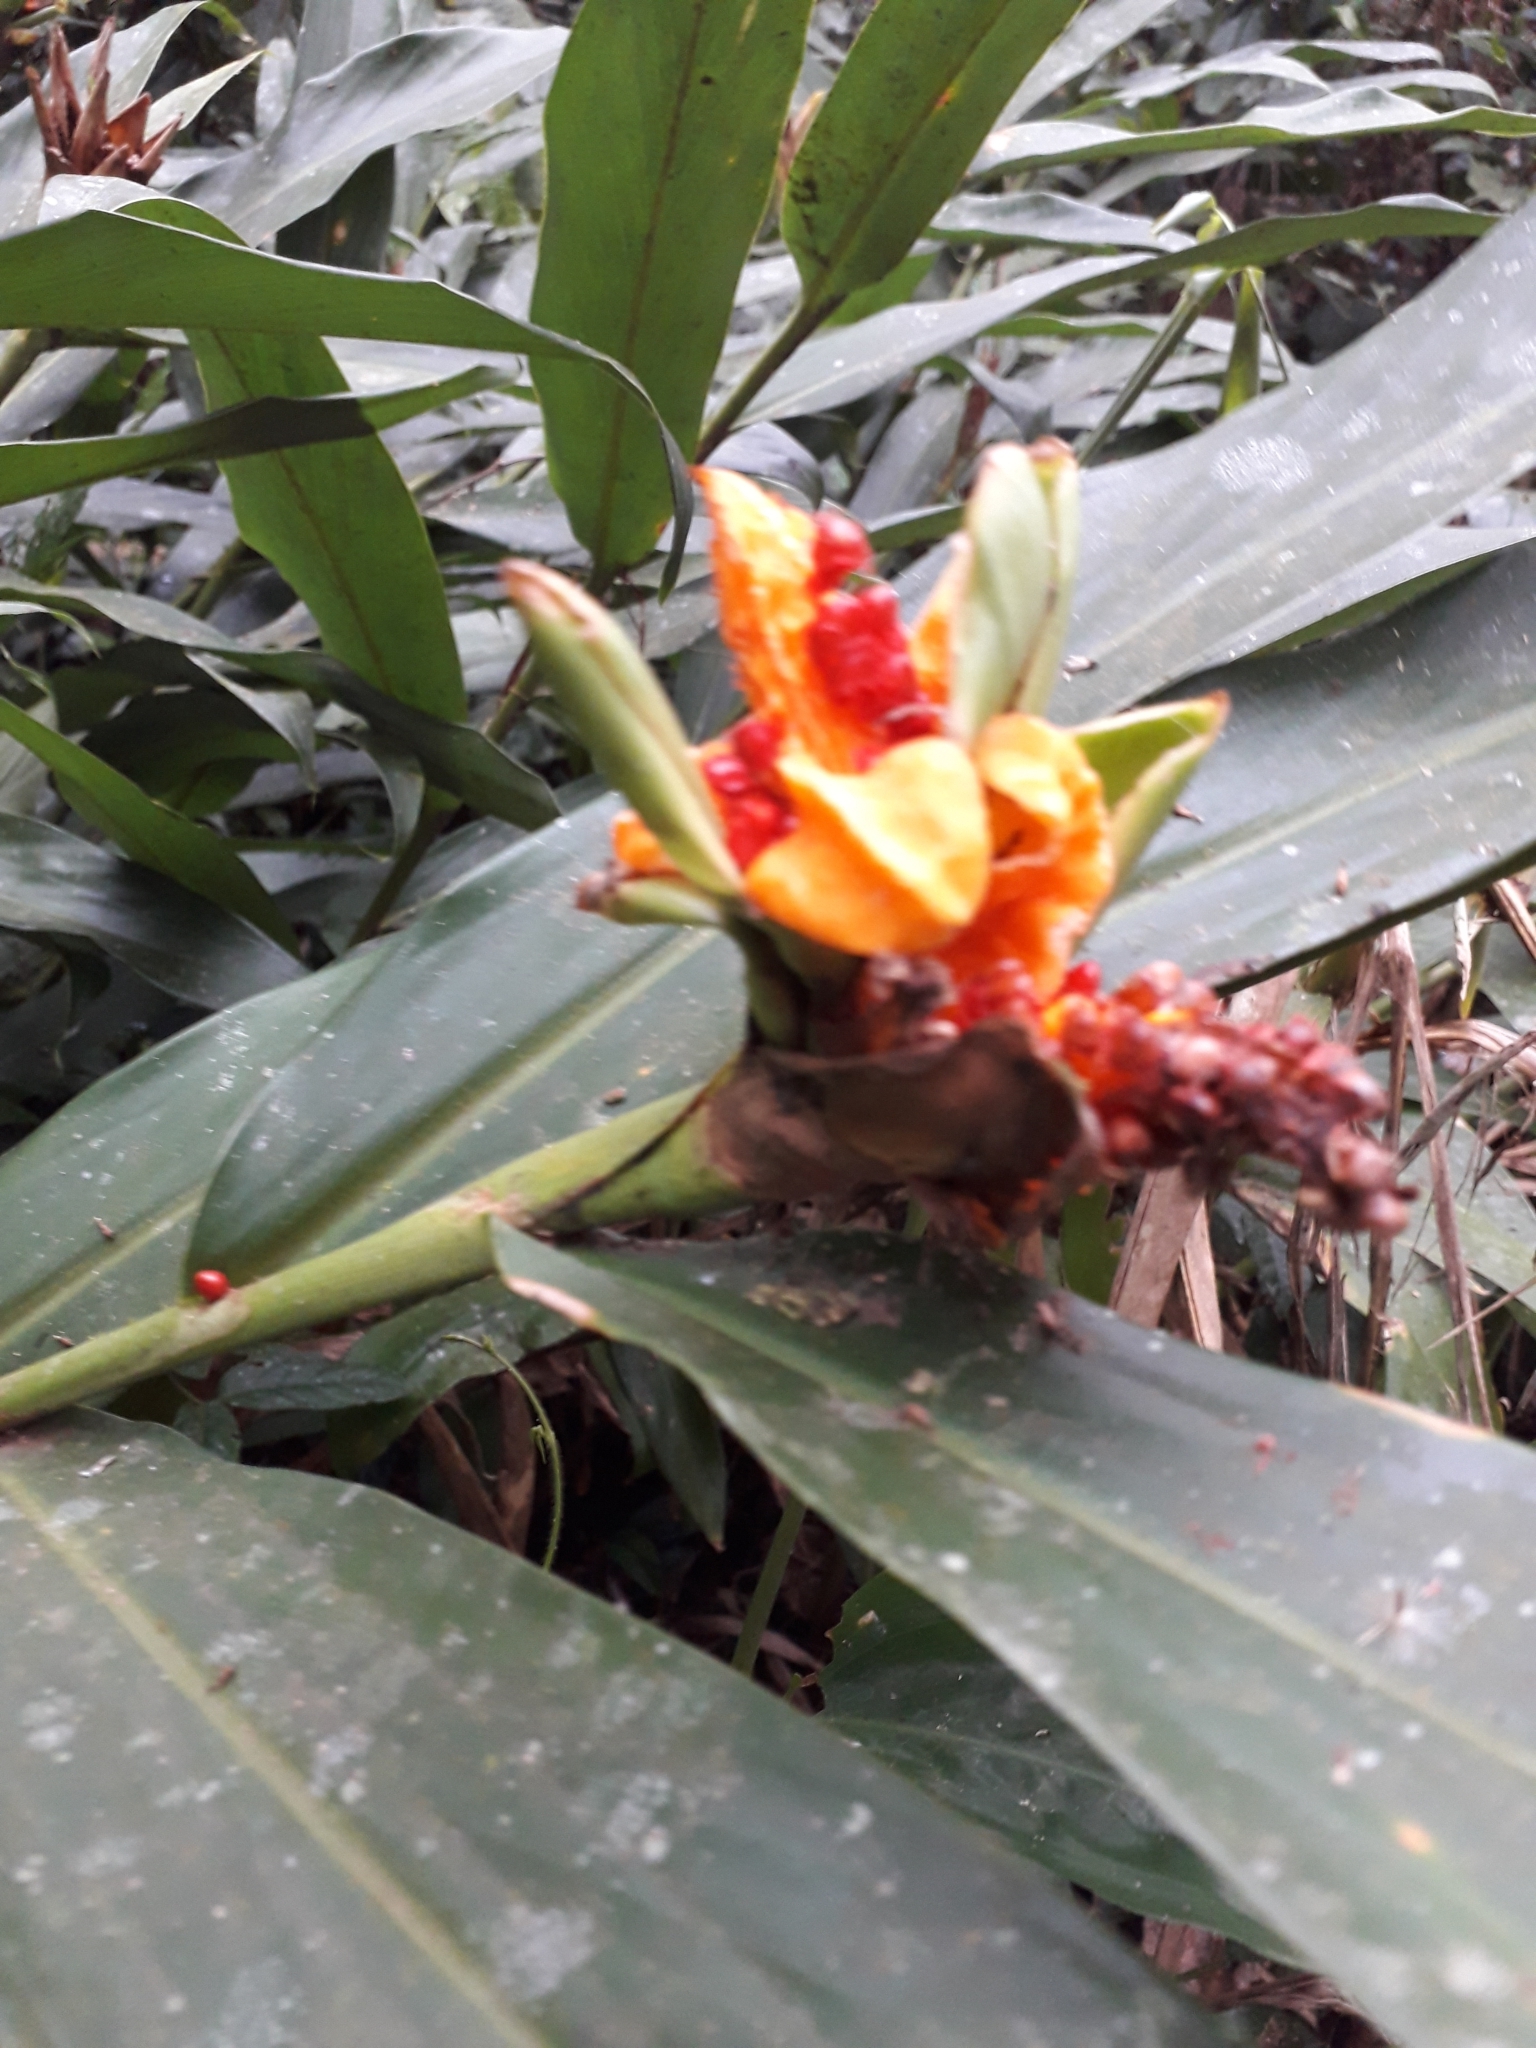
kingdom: Plantae
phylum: Tracheophyta
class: Liliopsida
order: Zingiberales
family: Zingiberaceae
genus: Hedychium
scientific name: Hedychium coronarium
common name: White garland-lily
